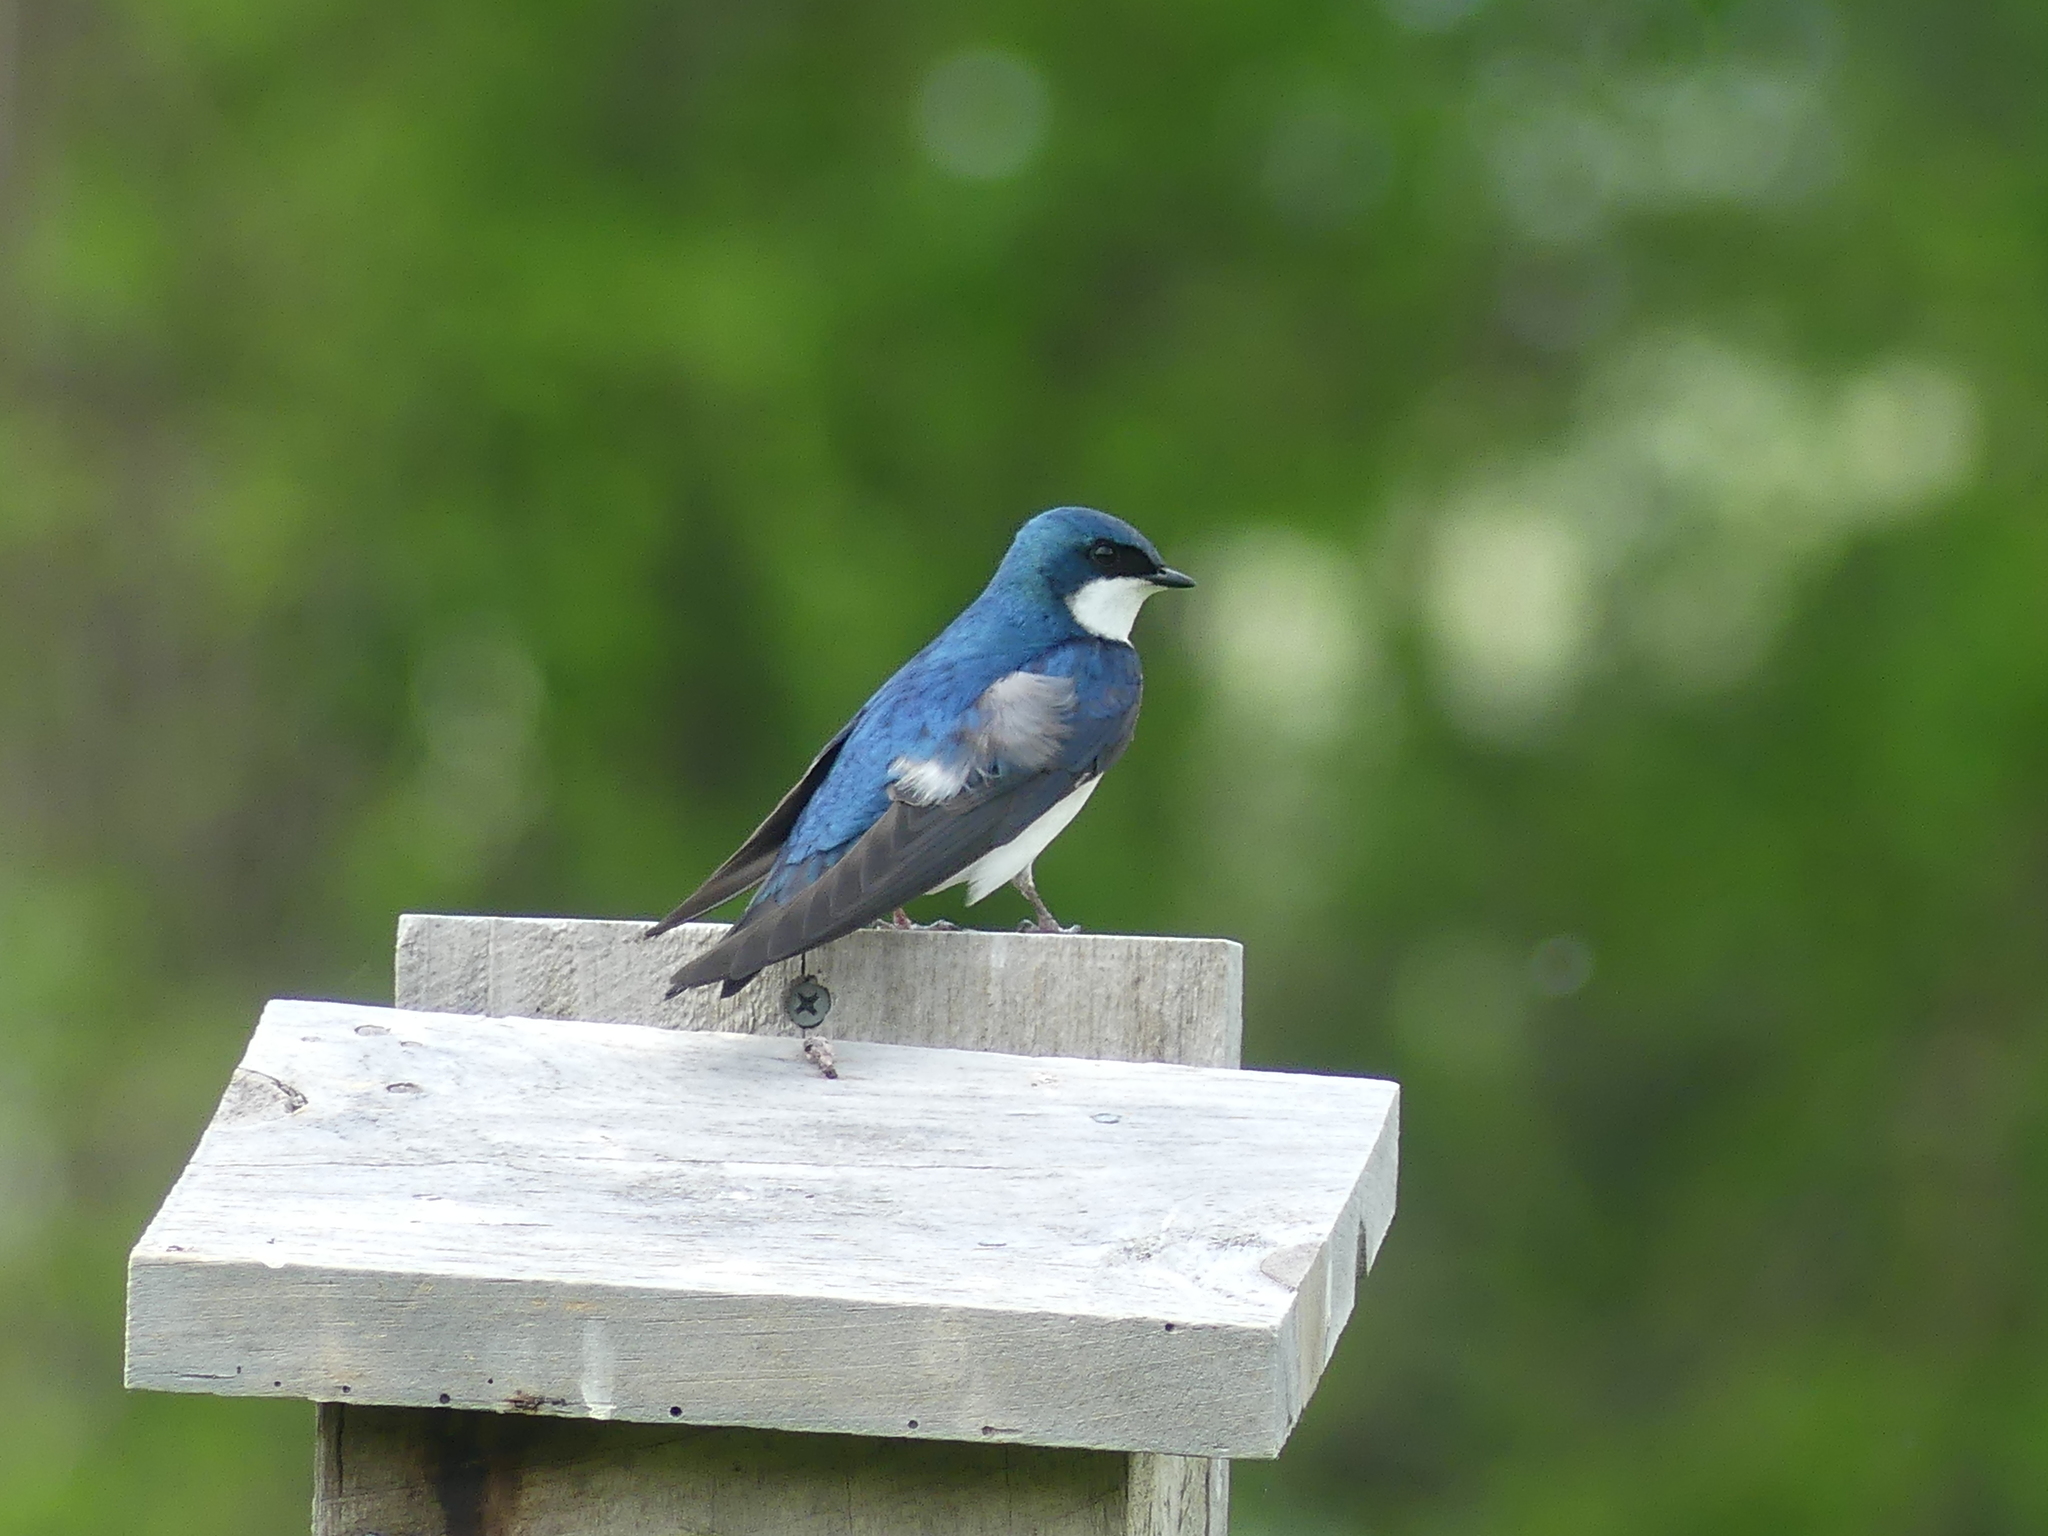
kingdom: Animalia
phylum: Chordata
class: Aves
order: Passeriformes
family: Hirundinidae
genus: Tachycineta
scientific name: Tachycineta bicolor
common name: Tree swallow
